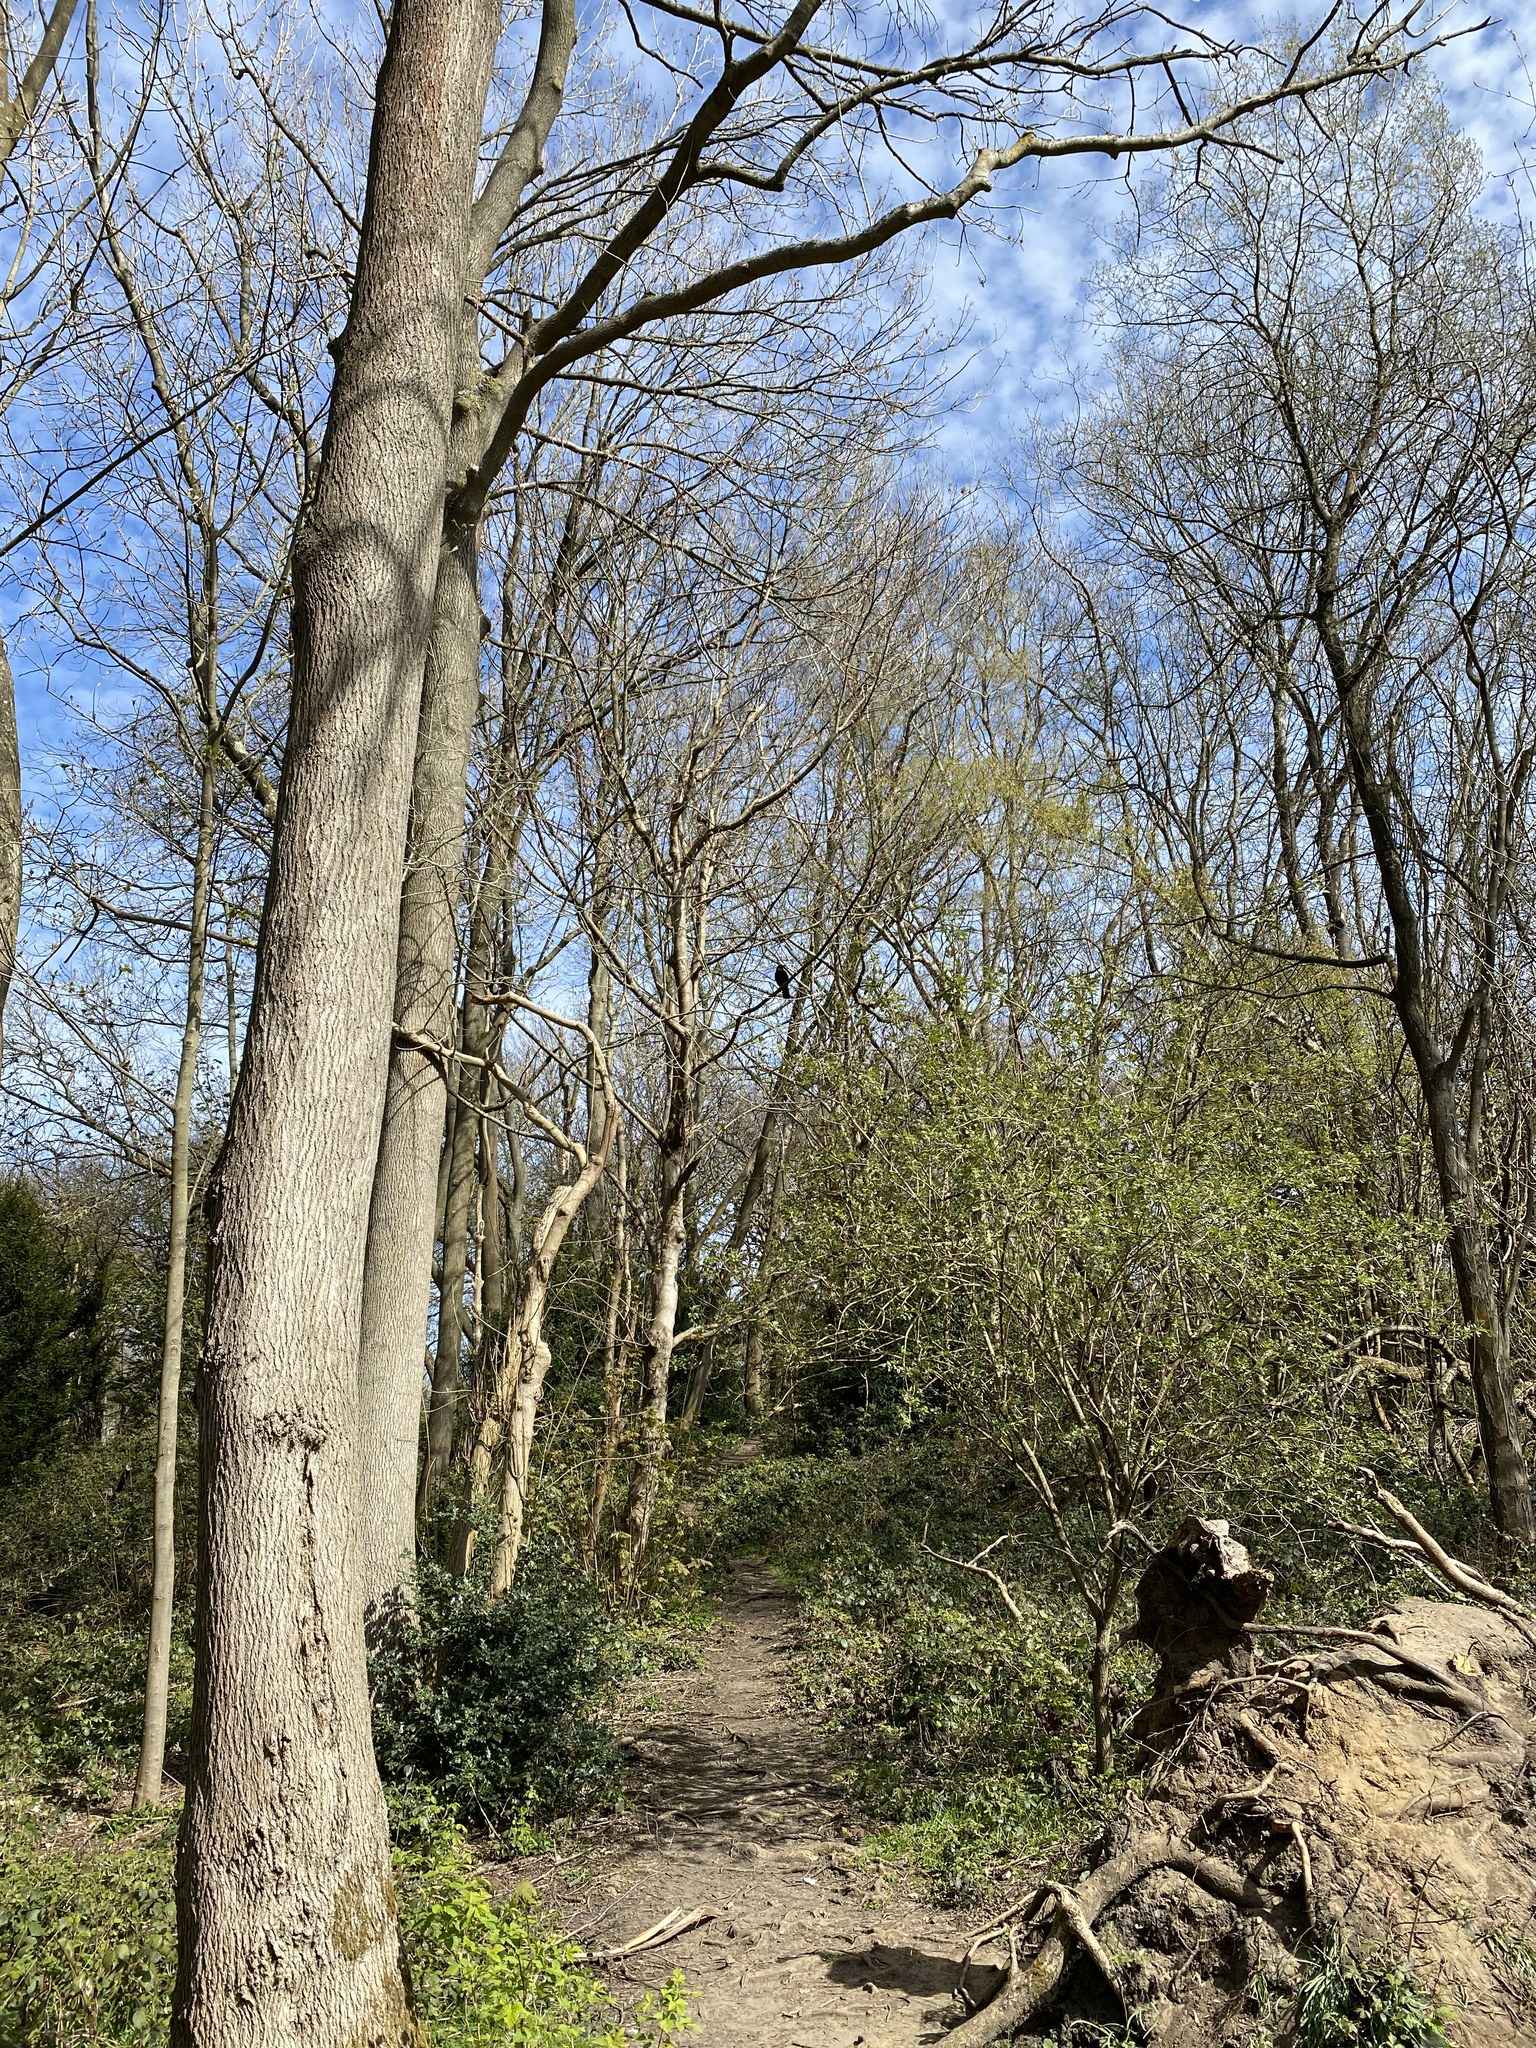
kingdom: Animalia
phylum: Chordata
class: Aves
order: Passeriformes
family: Corvidae
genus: Corvus
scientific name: Corvus corone
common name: Carrion crow
